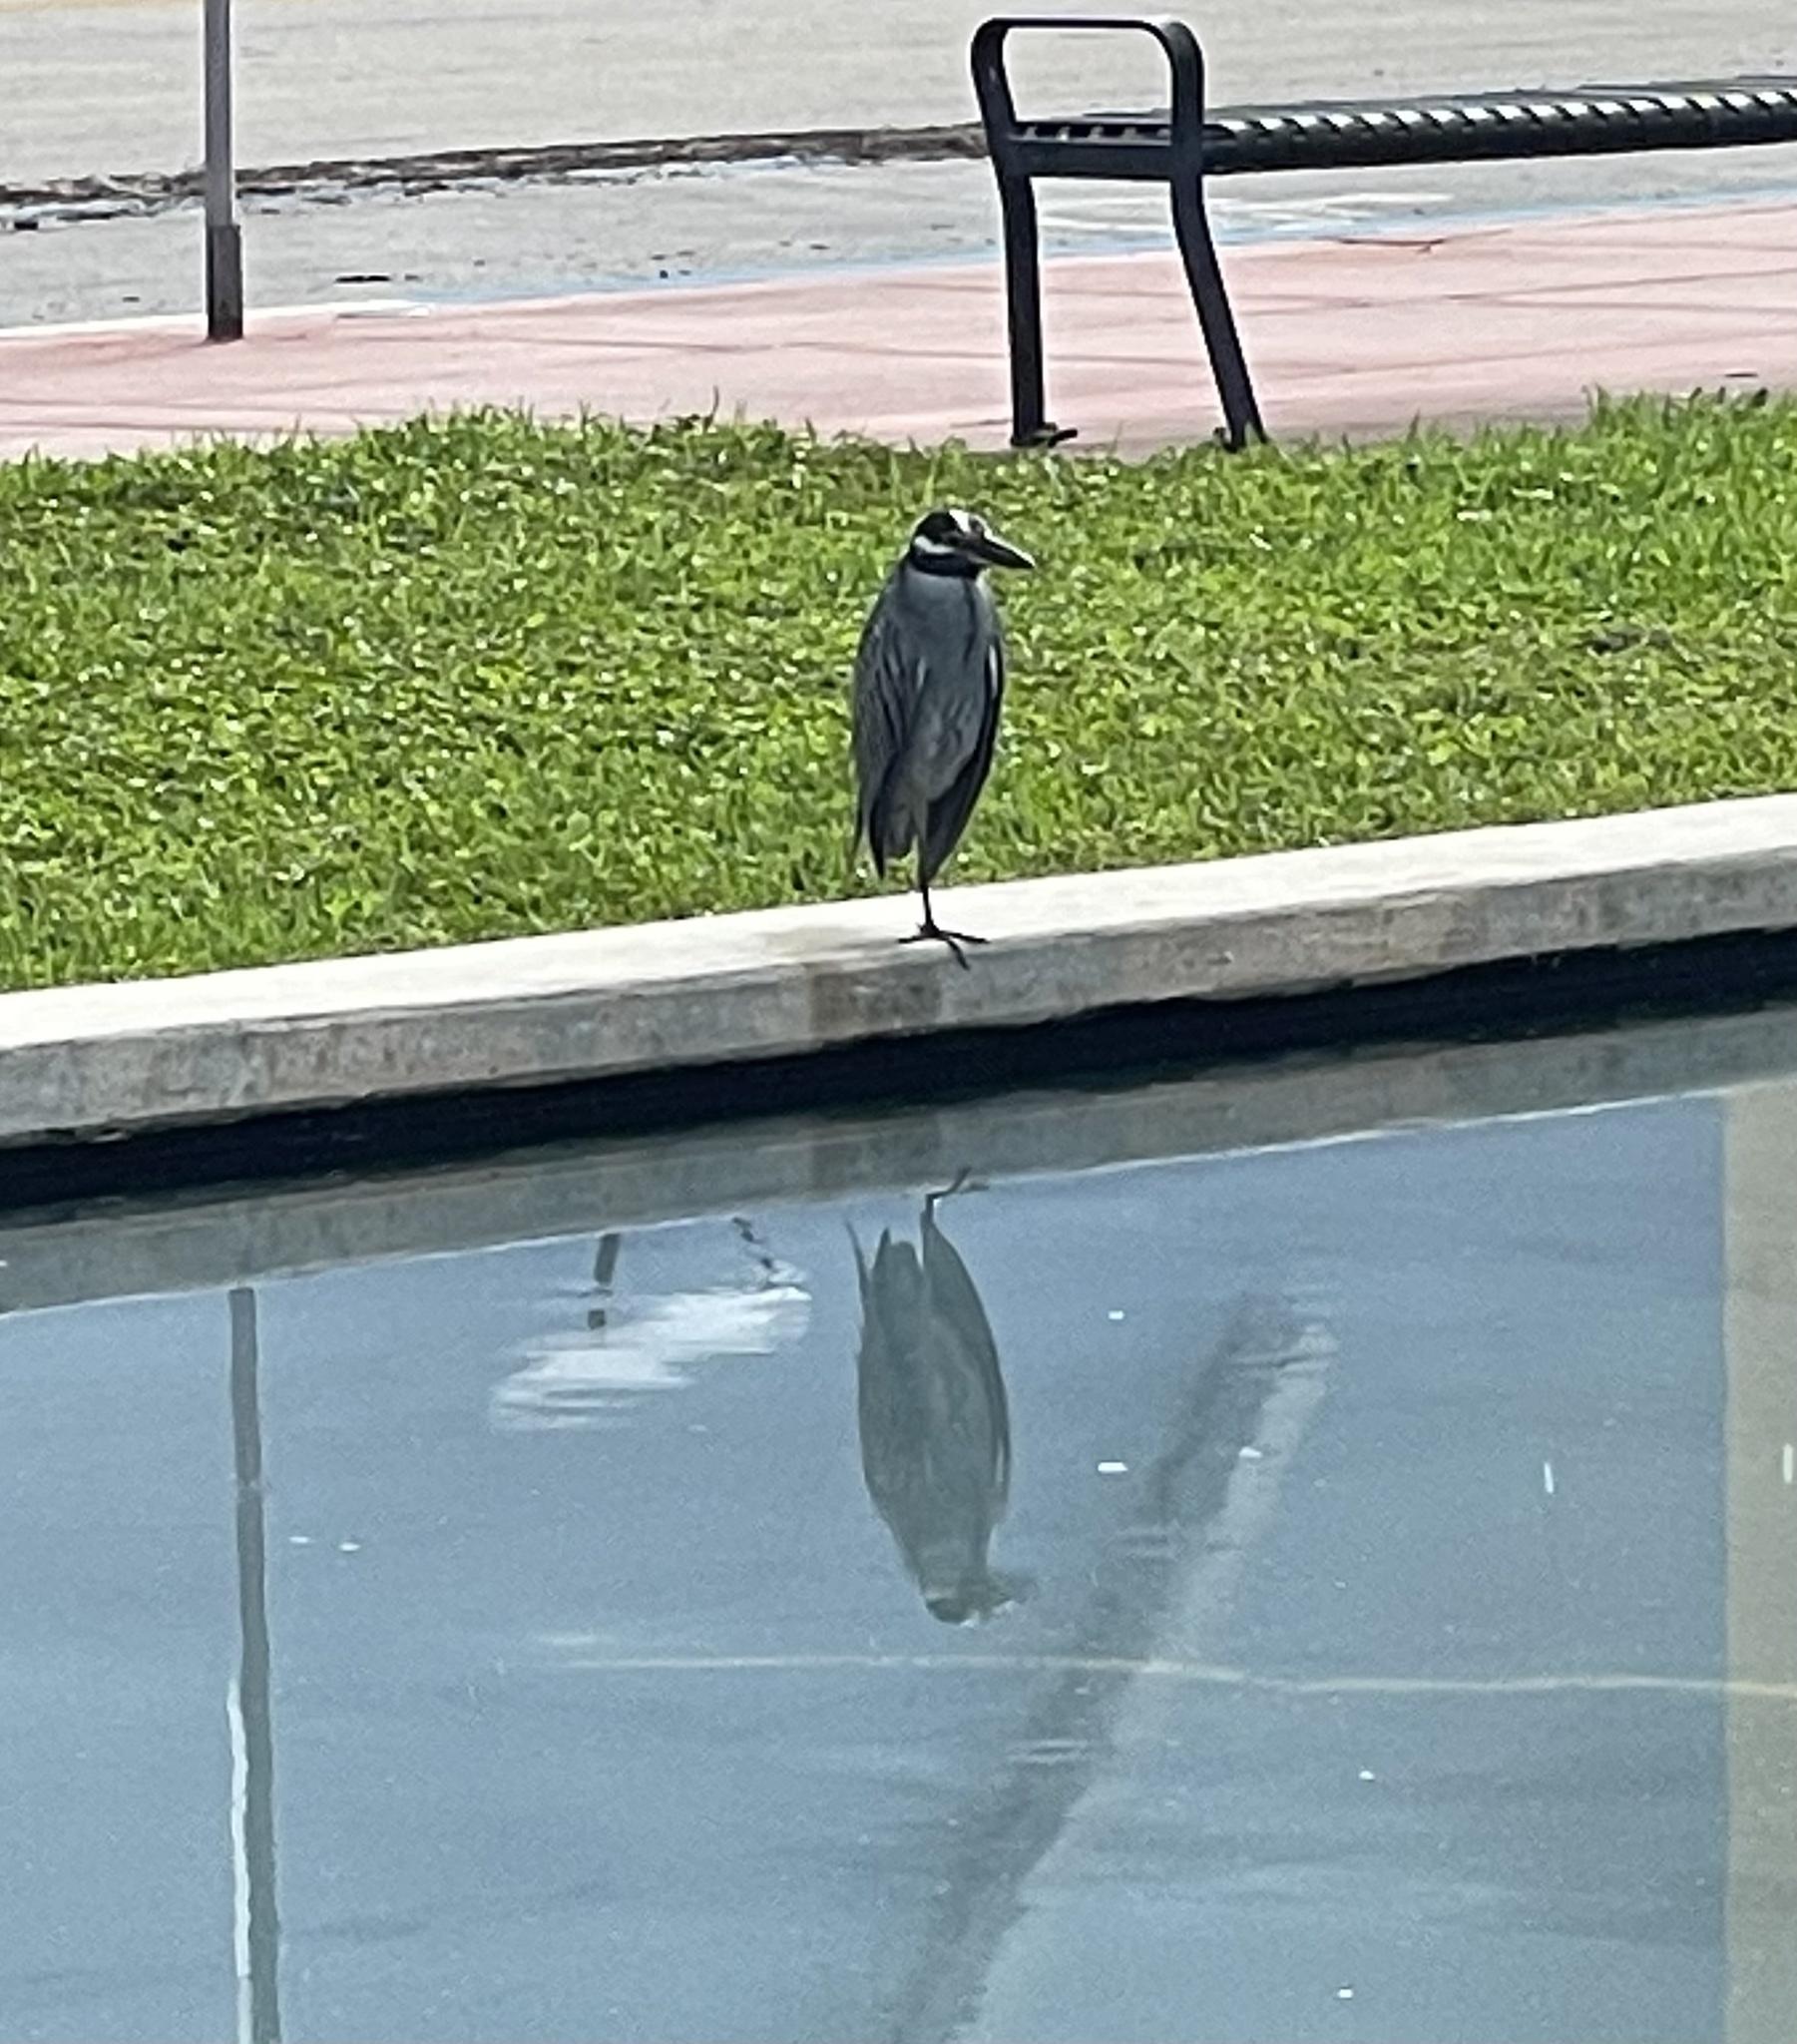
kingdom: Animalia
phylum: Chordata
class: Aves
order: Pelecaniformes
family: Ardeidae
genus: Nyctanassa
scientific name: Nyctanassa violacea
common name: Yellow-crowned night heron
